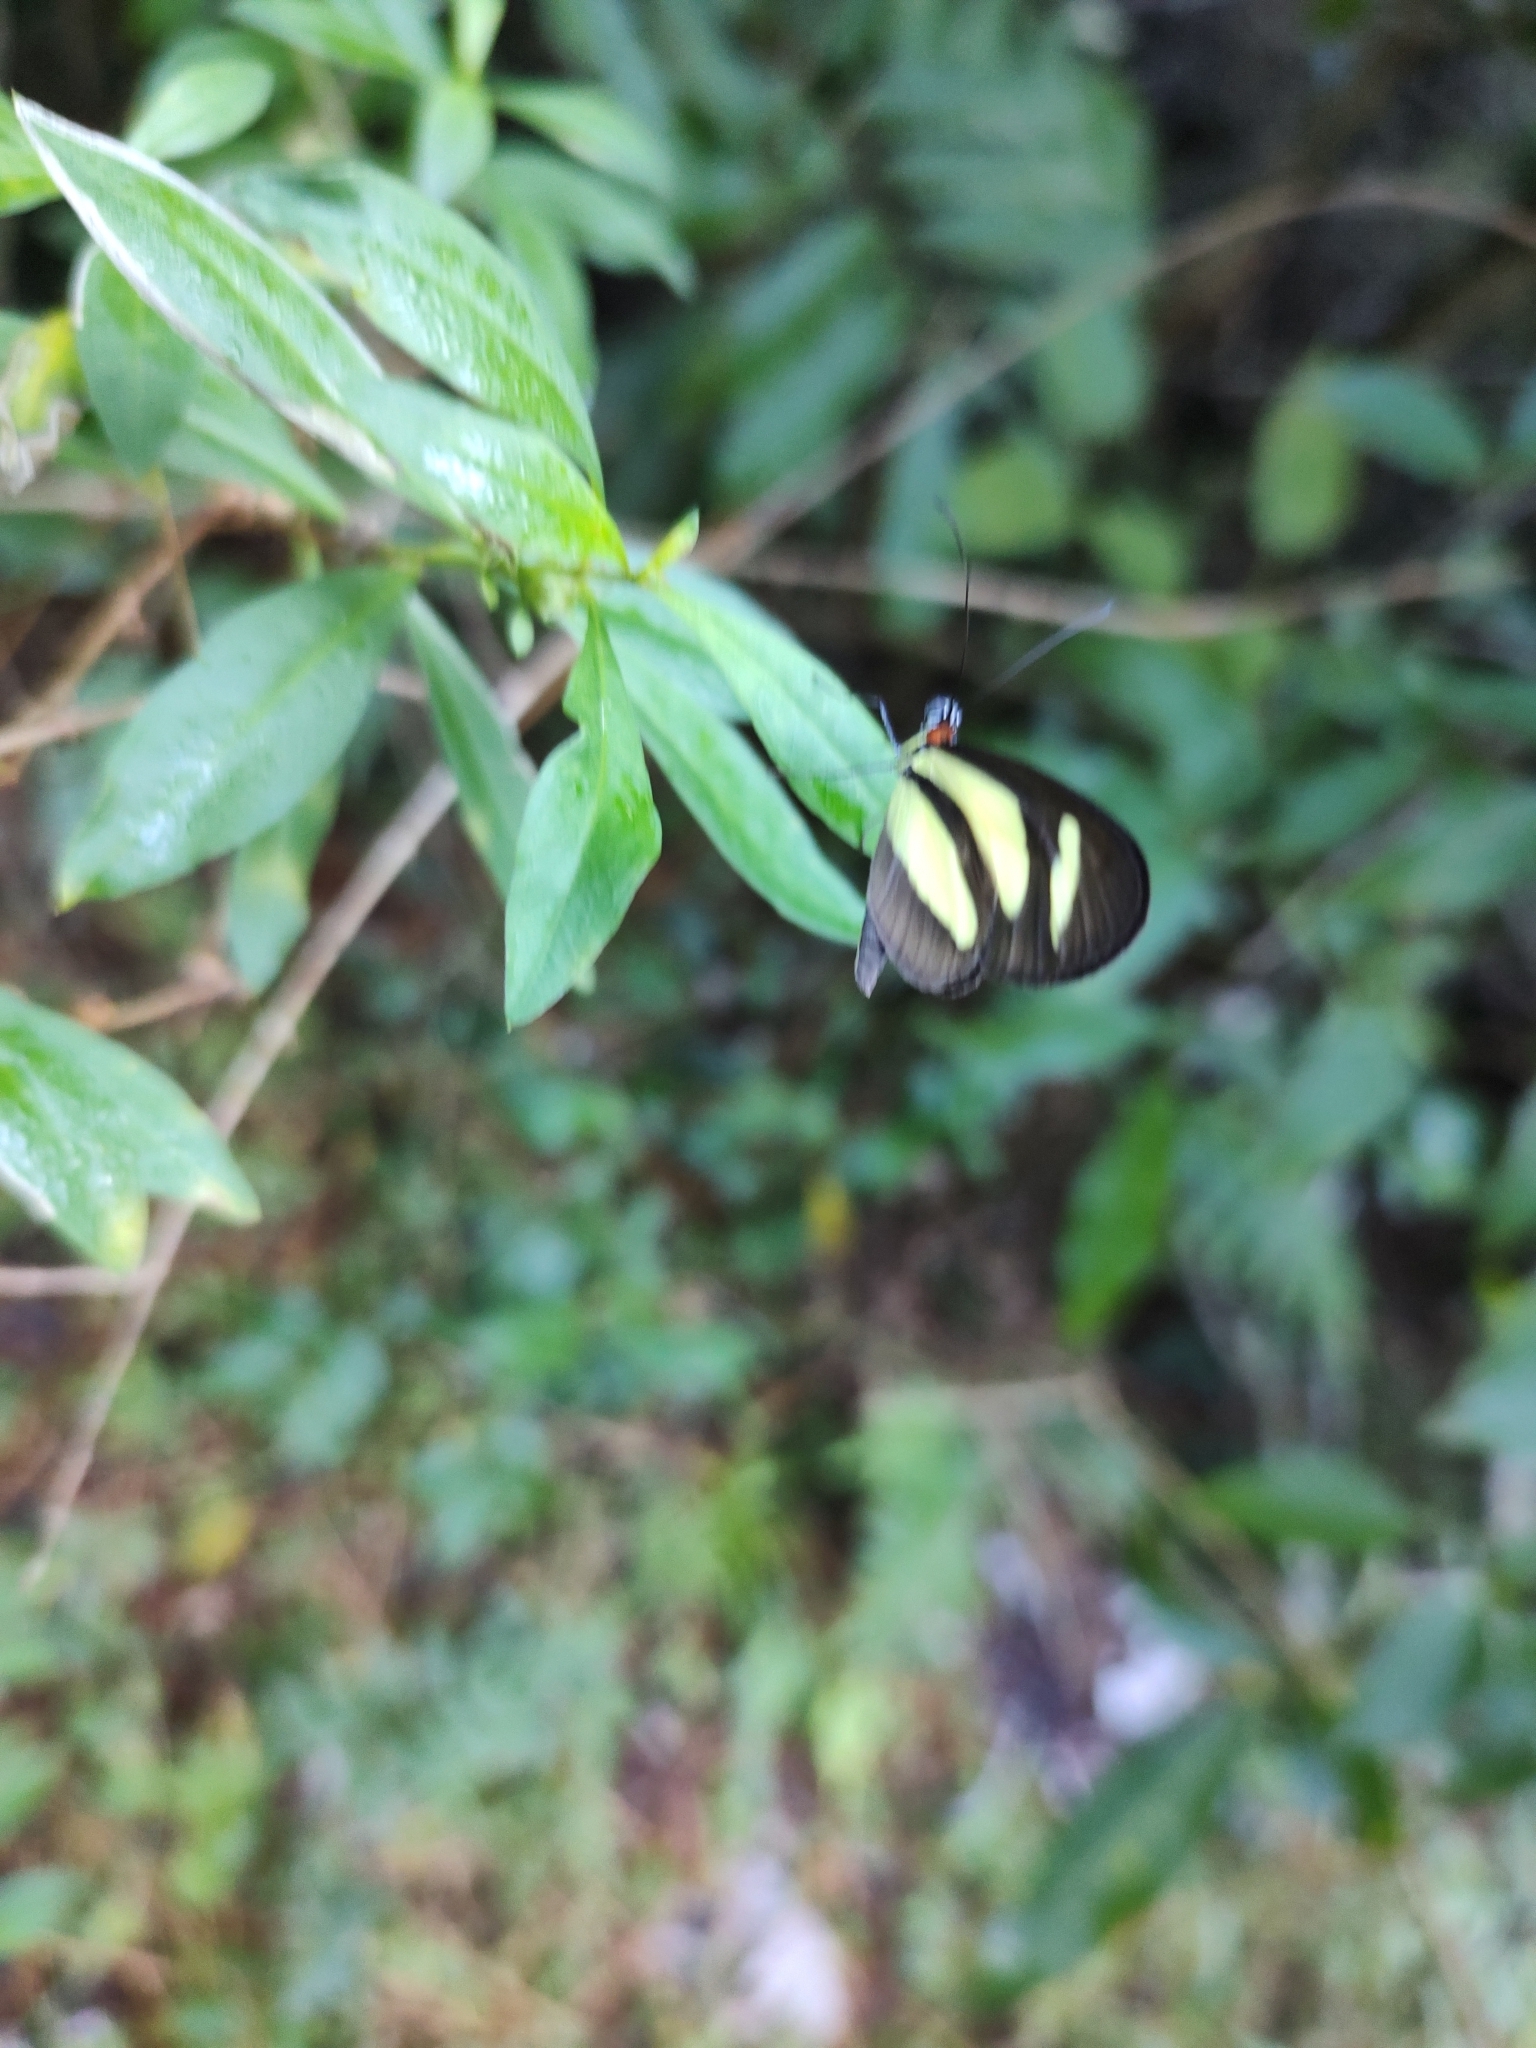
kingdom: Animalia
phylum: Arthropoda
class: Insecta
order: Lepidoptera
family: Nymphalidae
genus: Aeria
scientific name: Aeria olena
